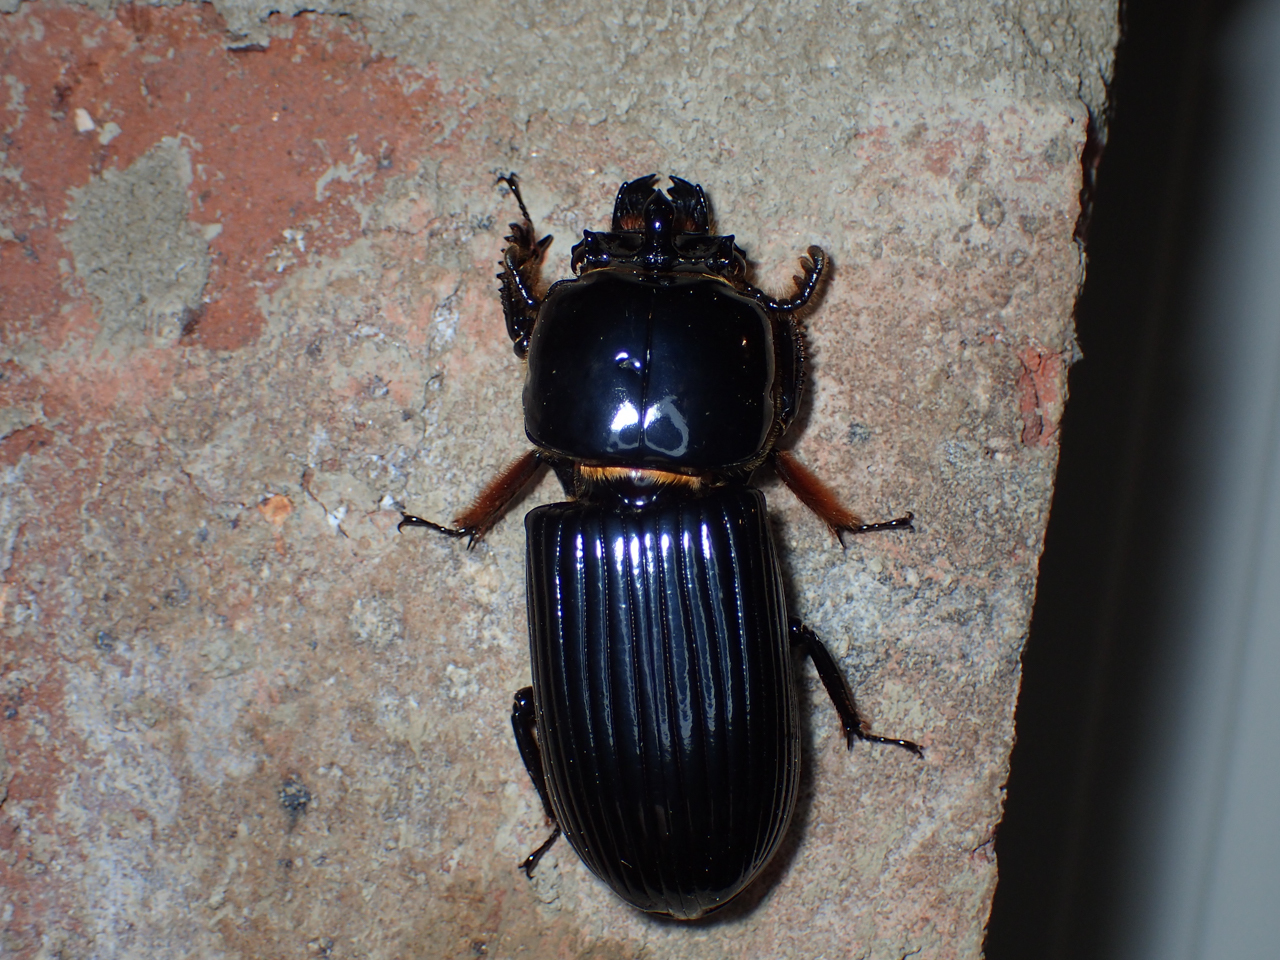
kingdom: Animalia
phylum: Arthropoda
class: Insecta
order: Coleoptera
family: Passalidae
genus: Odontotaenius
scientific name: Odontotaenius disjunctus
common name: Patent leather beetle
